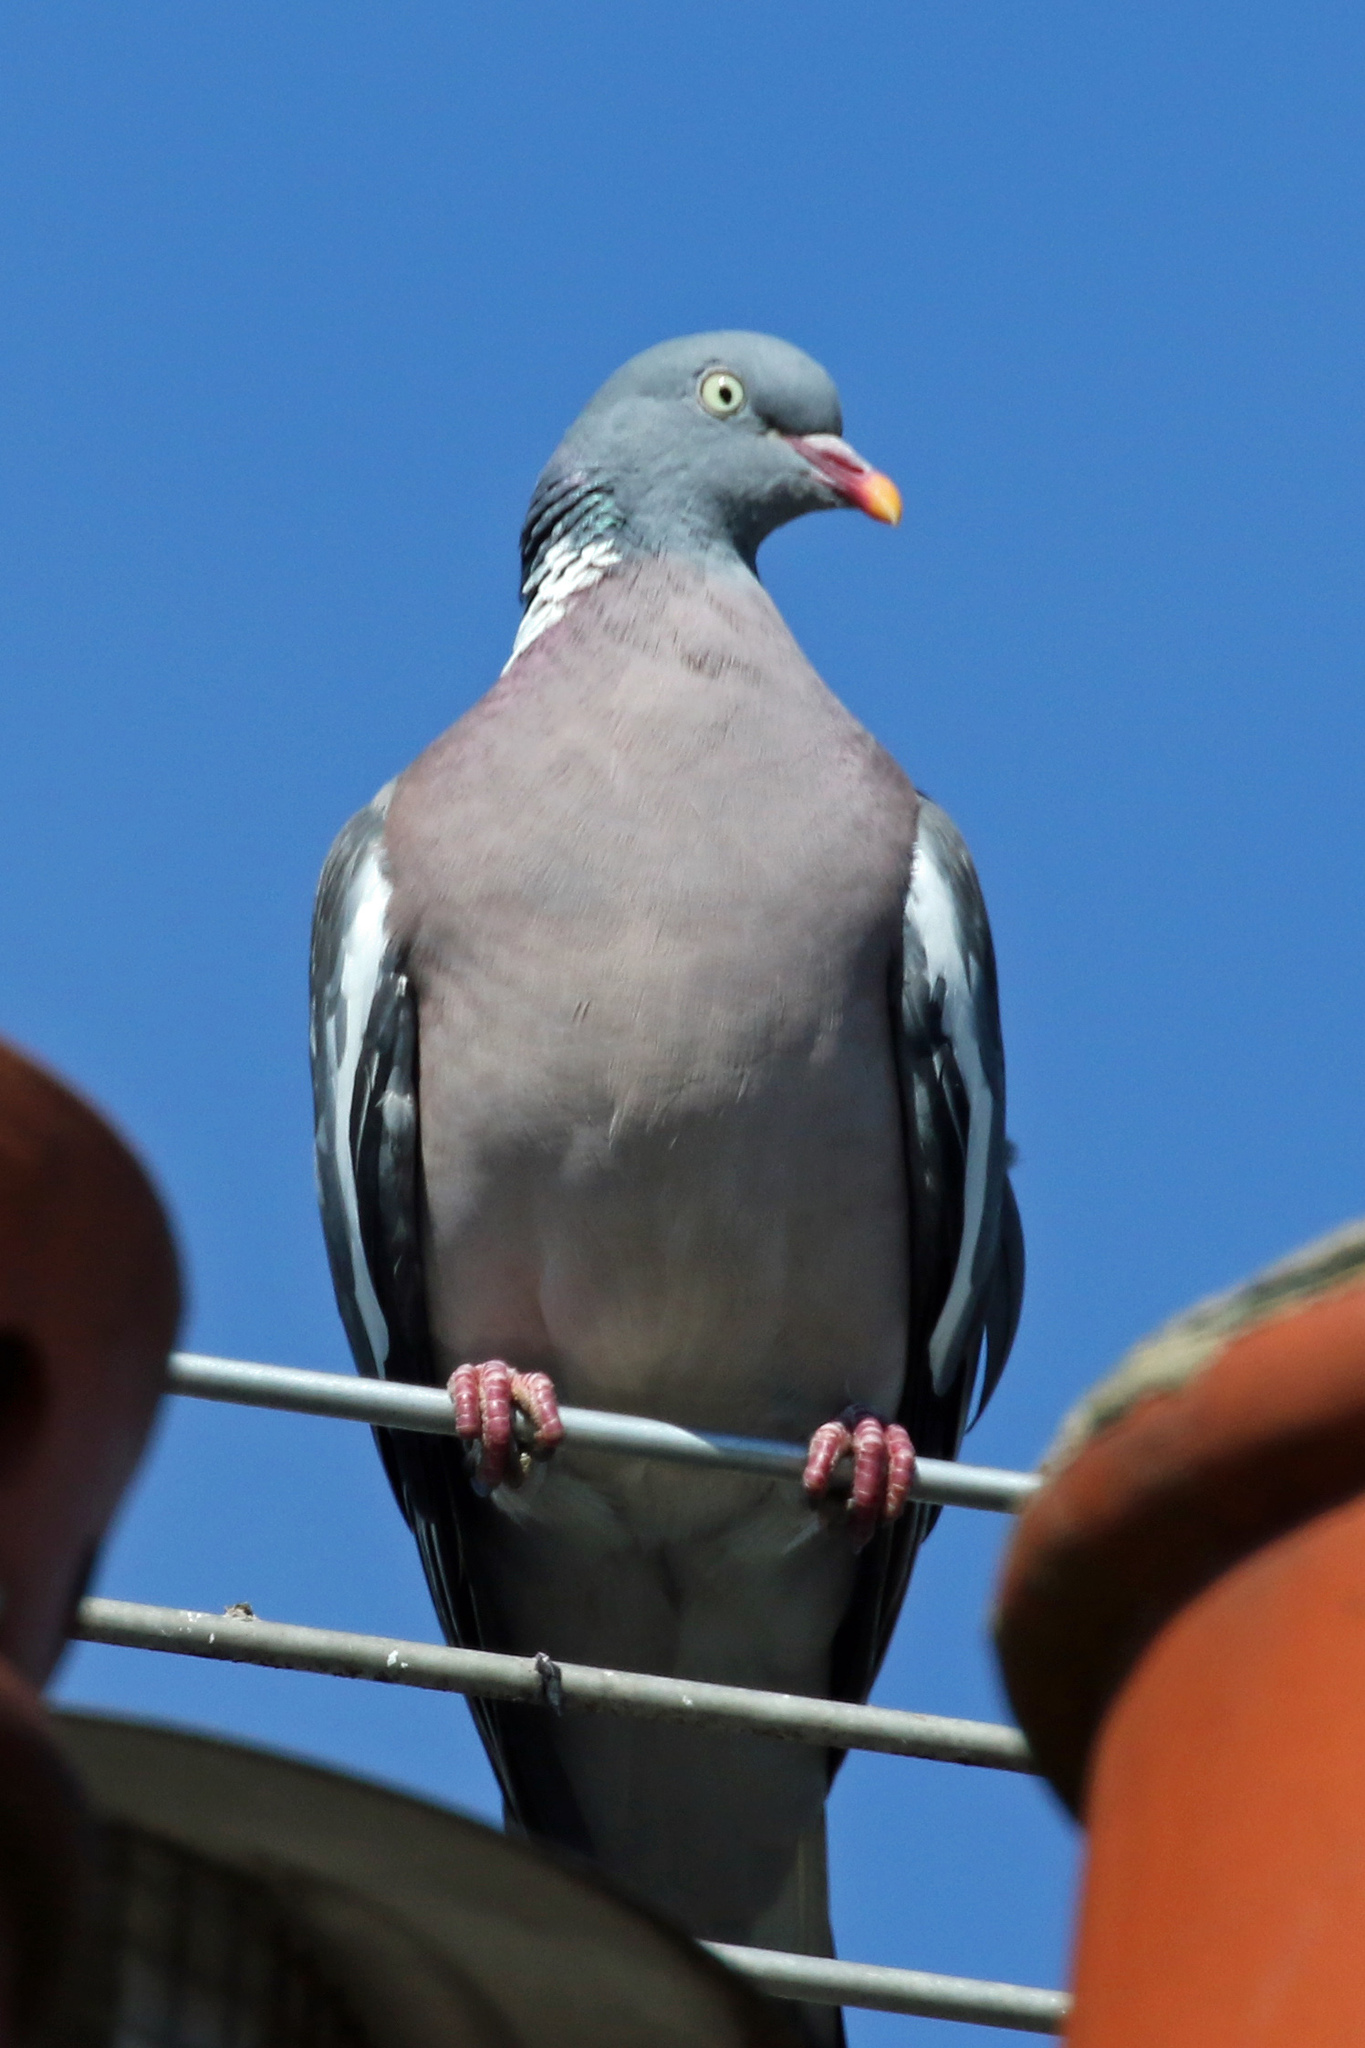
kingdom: Animalia
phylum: Chordata
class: Aves
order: Columbiformes
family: Columbidae
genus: Columba
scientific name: Columba palumbus
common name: Common wood pigeon
